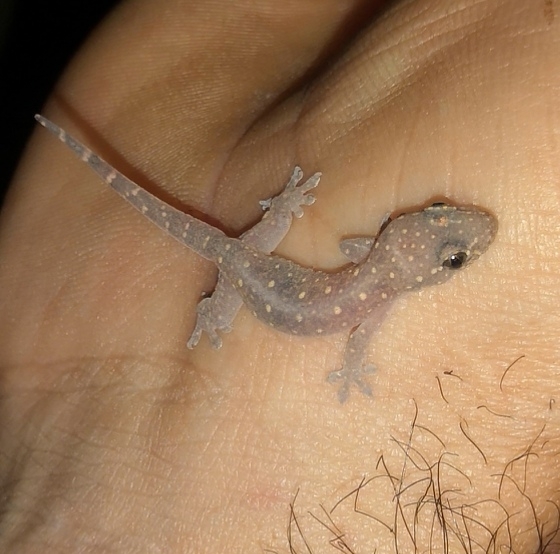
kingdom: Animalia
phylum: Chordata
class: Squamata
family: Gekkonidae
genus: Gehyra
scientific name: Gehyra mutilata
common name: Stump-toed gecko
